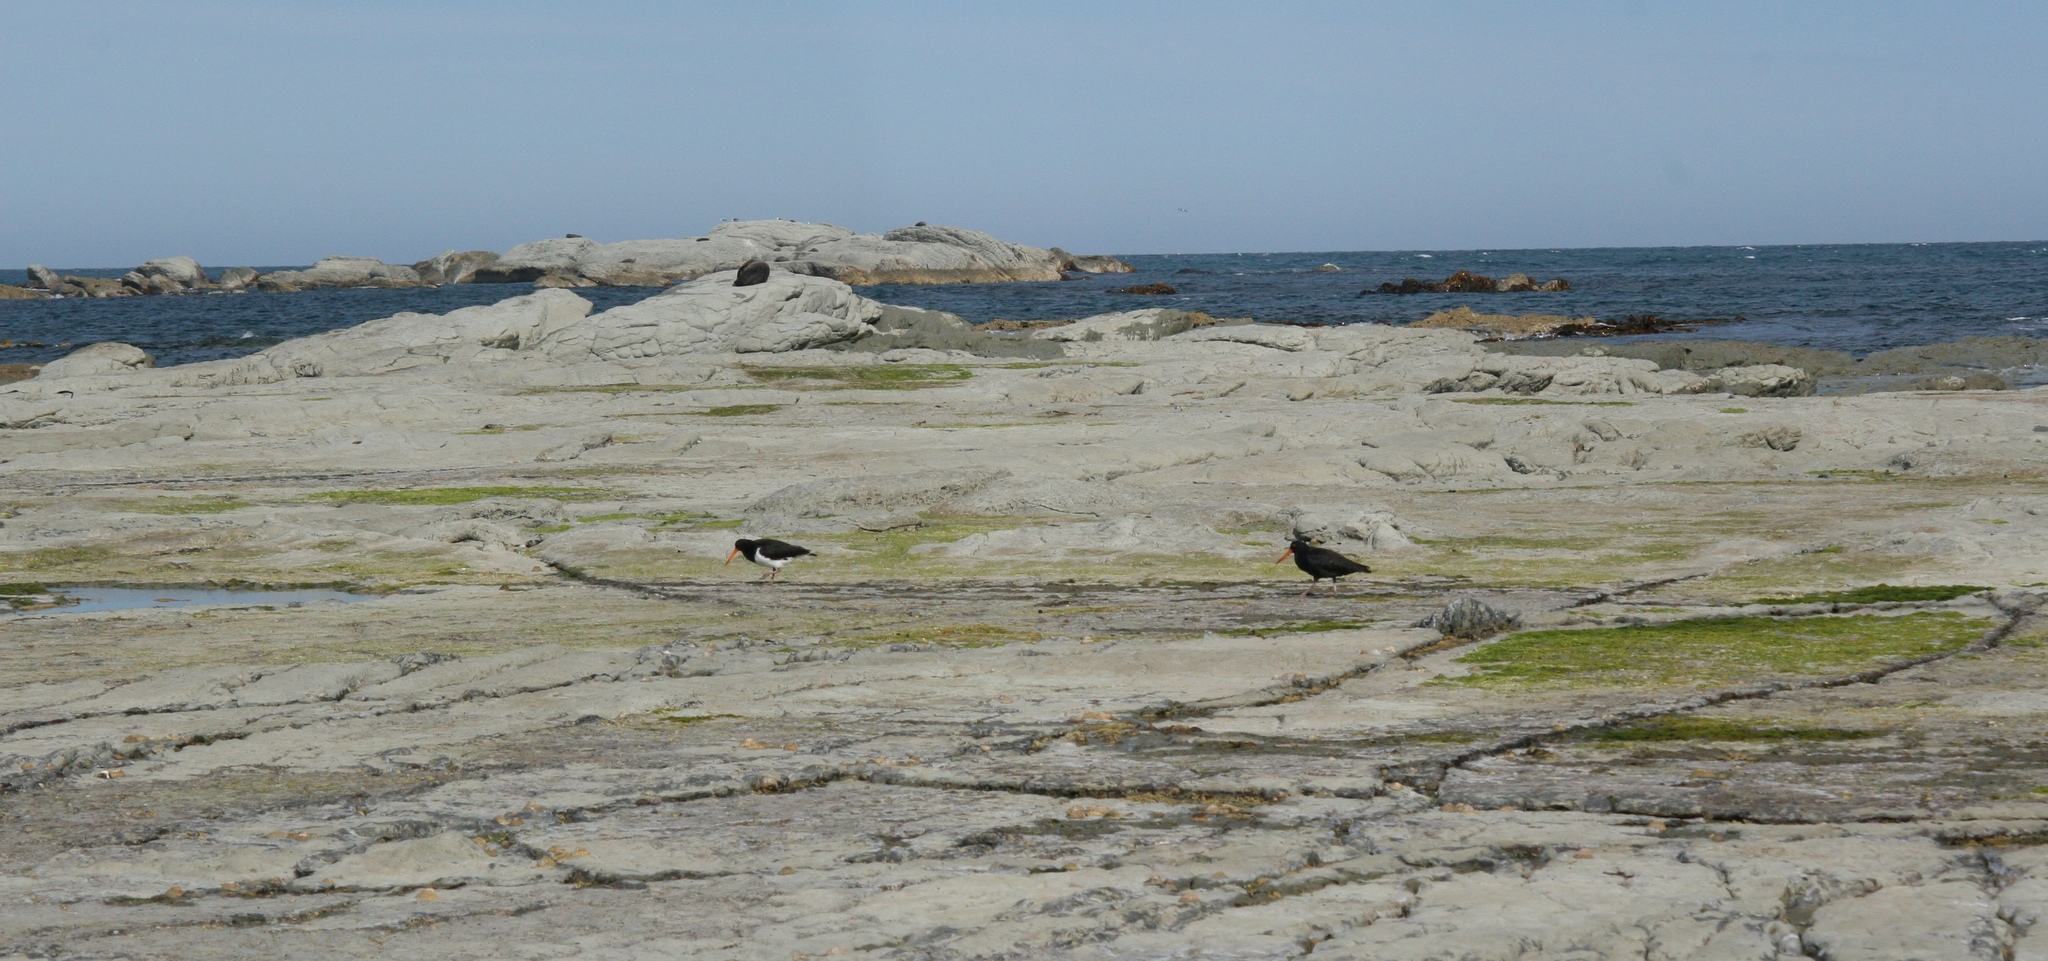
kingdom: Animalia
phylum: Chordata
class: Aves
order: Charadriiformes
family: Haematopodidae
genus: Haematopus
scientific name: Haematopus unicolor
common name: Variable oystercatcher
